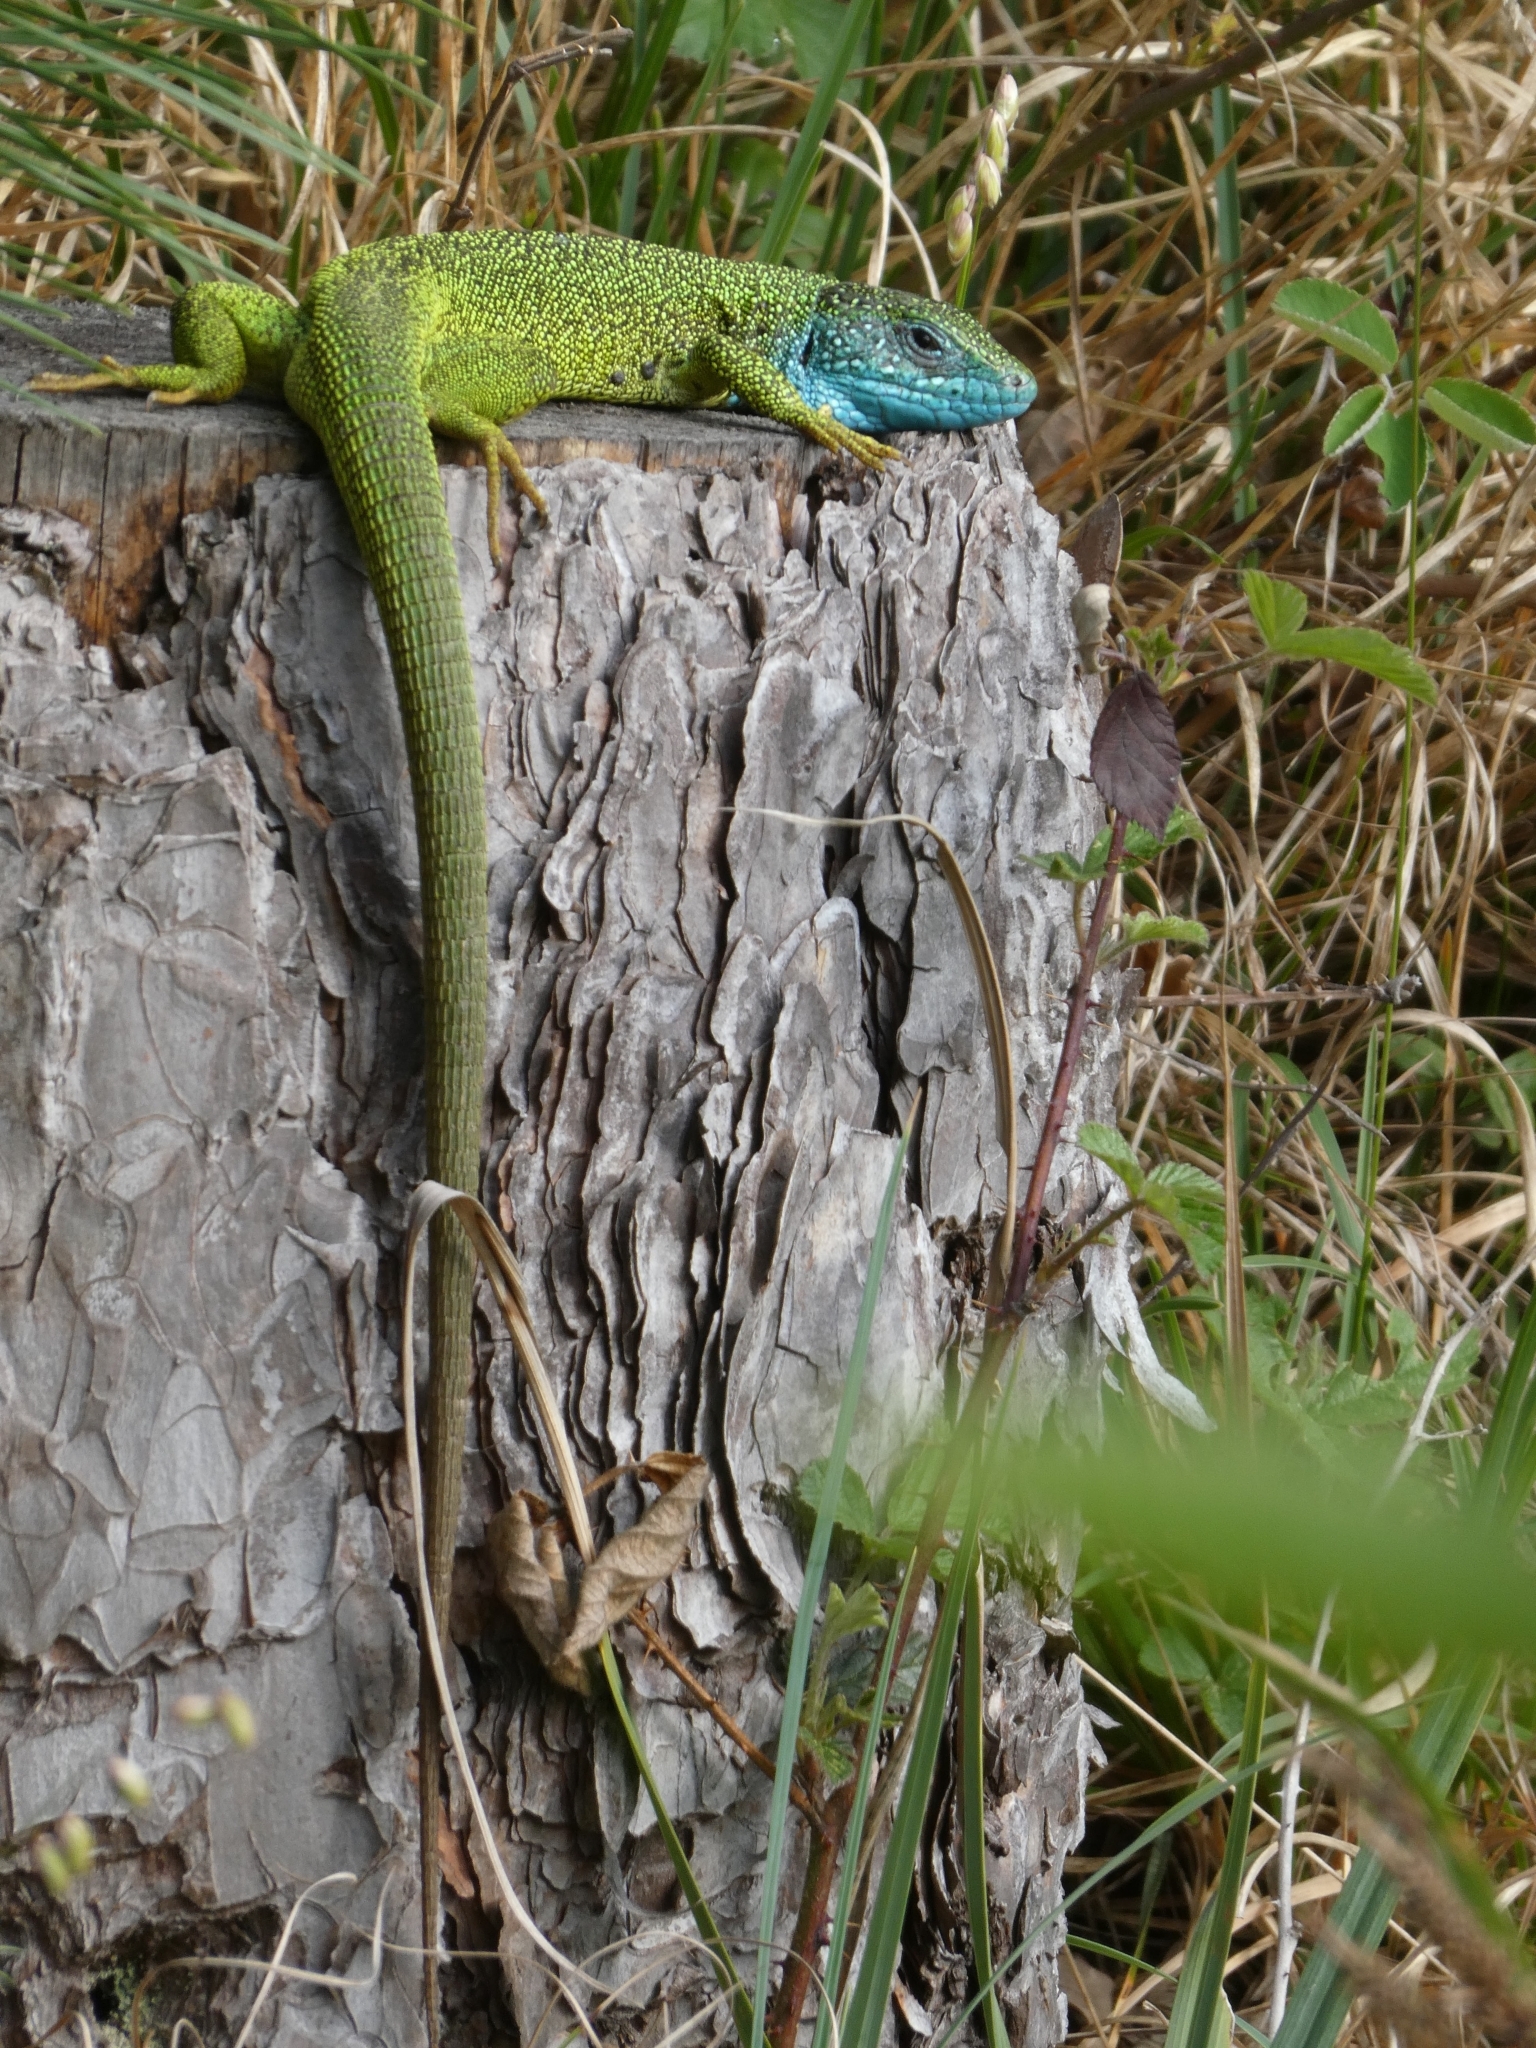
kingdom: Animalia
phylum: Chordata
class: Squamata
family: Lacertidae
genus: Lacerta
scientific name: Lacerta viridis
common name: European green lizard
